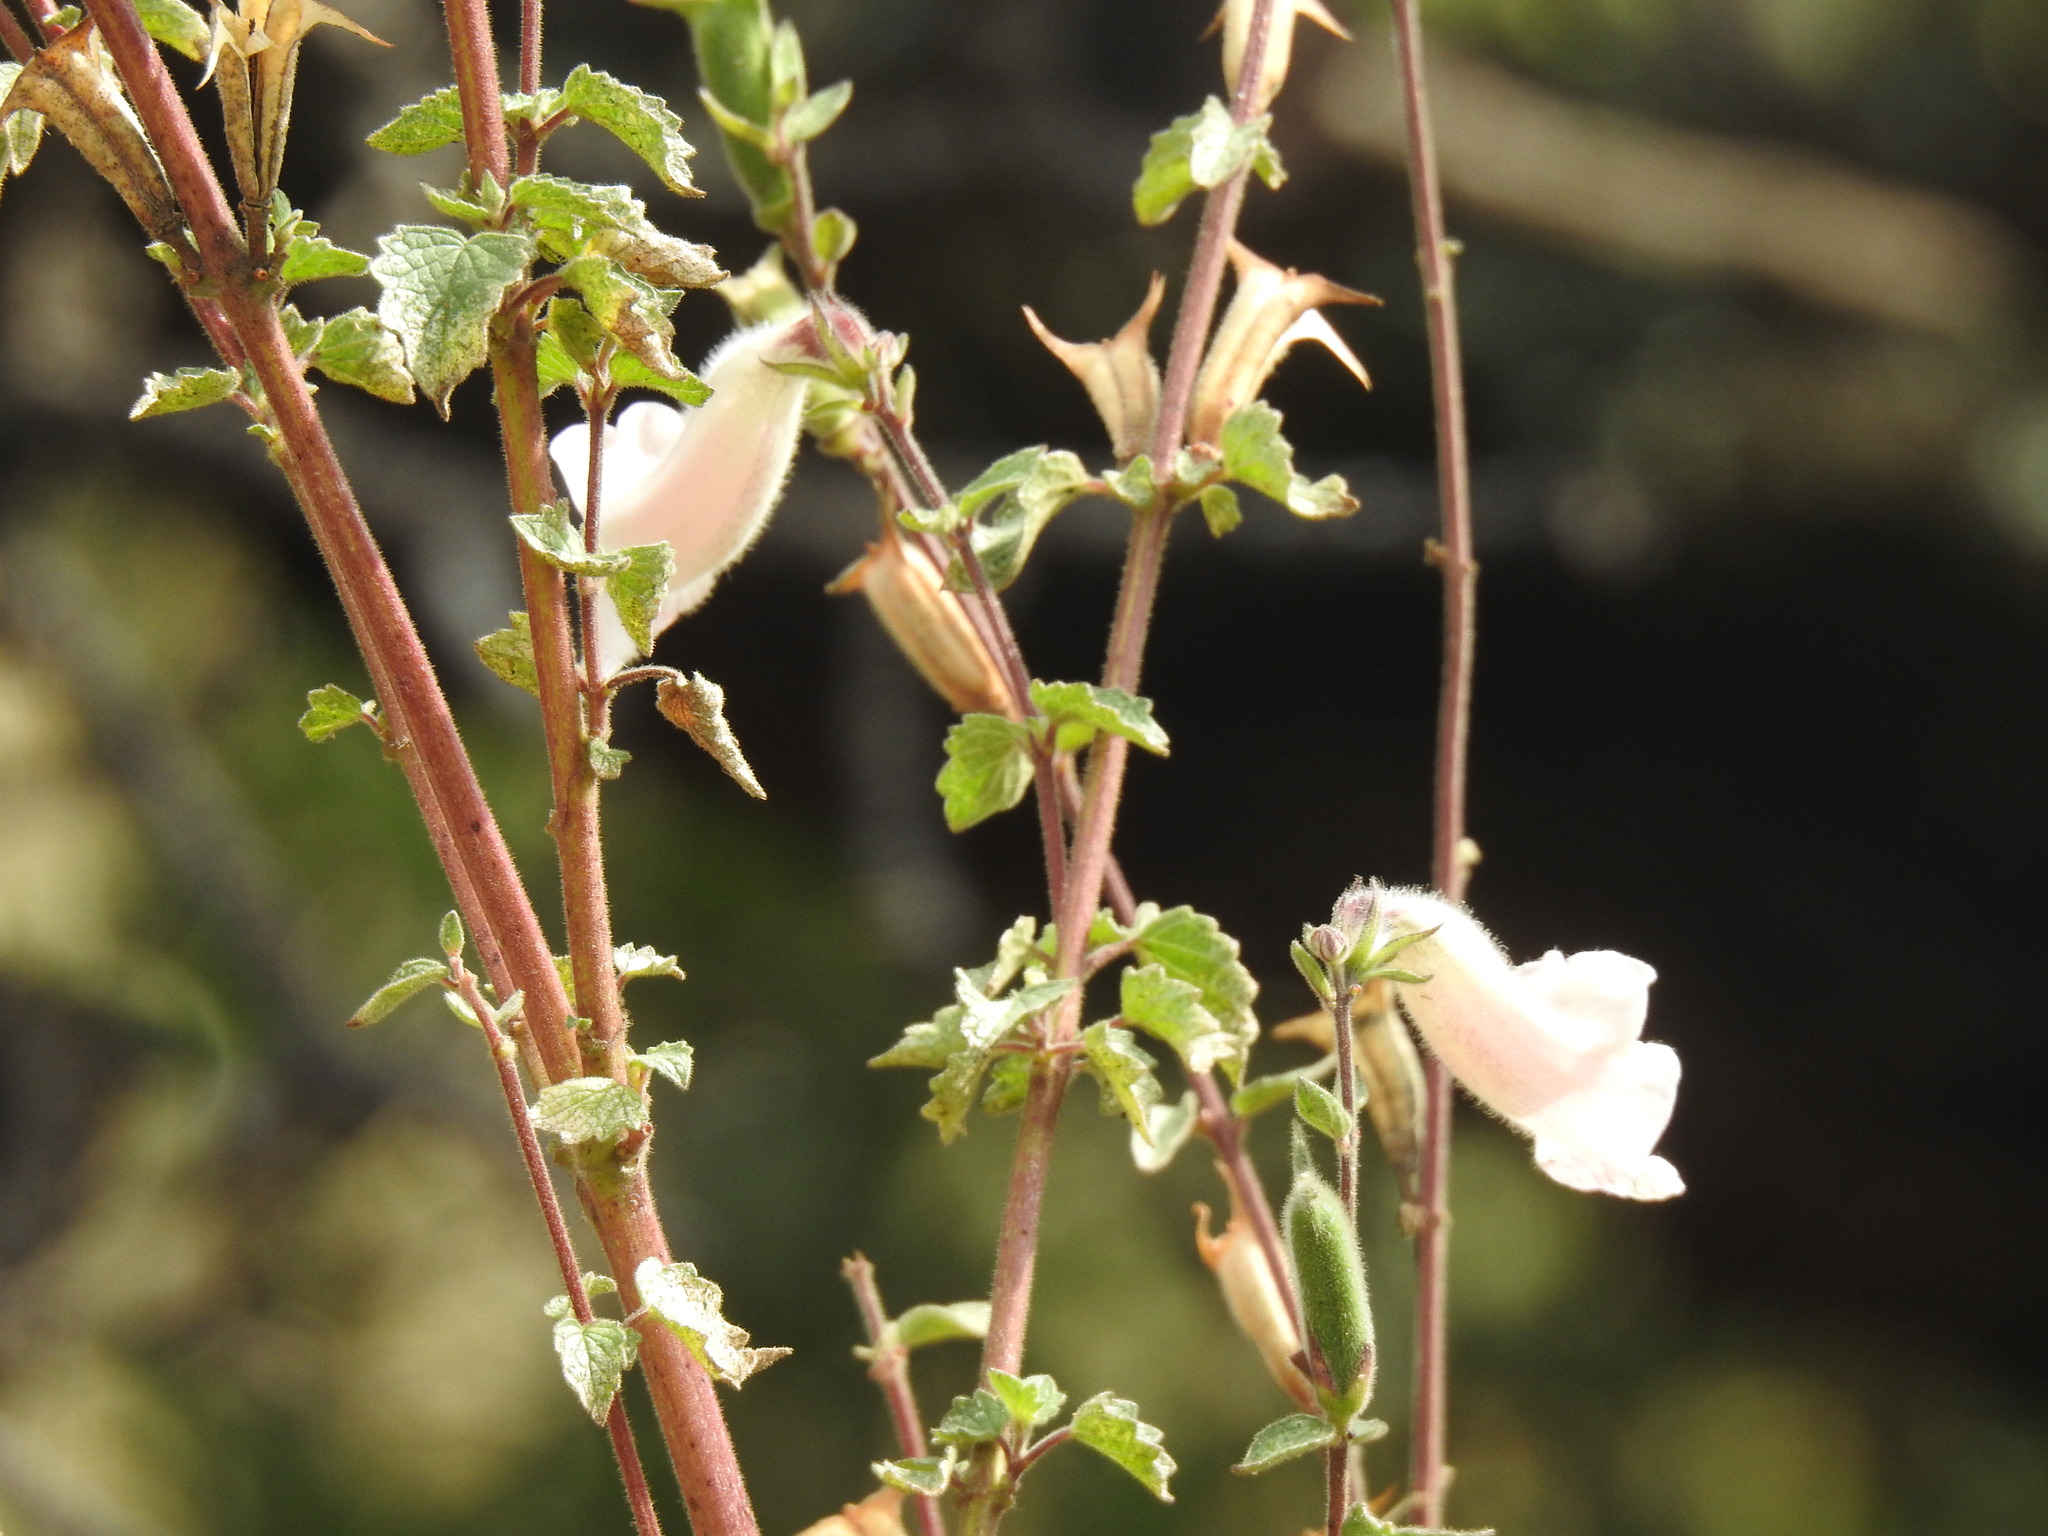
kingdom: Plantae
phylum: Tracheophyta
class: Magnoliopsida
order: Lamiales
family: Pedaliaceae
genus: Sesamum
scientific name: Sesamum trilobum
